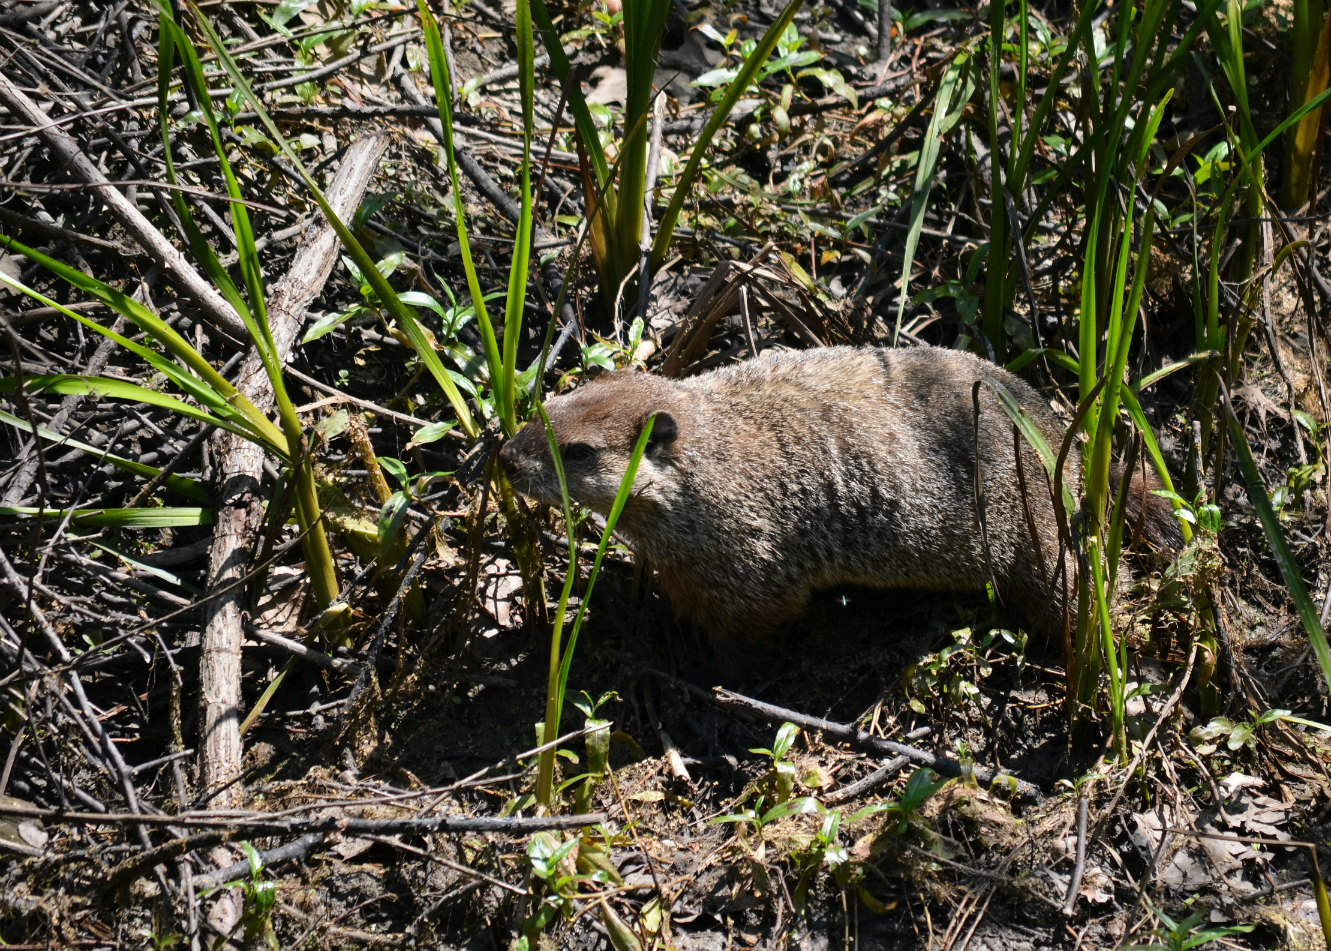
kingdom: Animalia
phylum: Chordata
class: Mammalia
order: Rodentia
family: Sciuridae
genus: Marmota
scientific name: Marmota monax
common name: Groundhog
